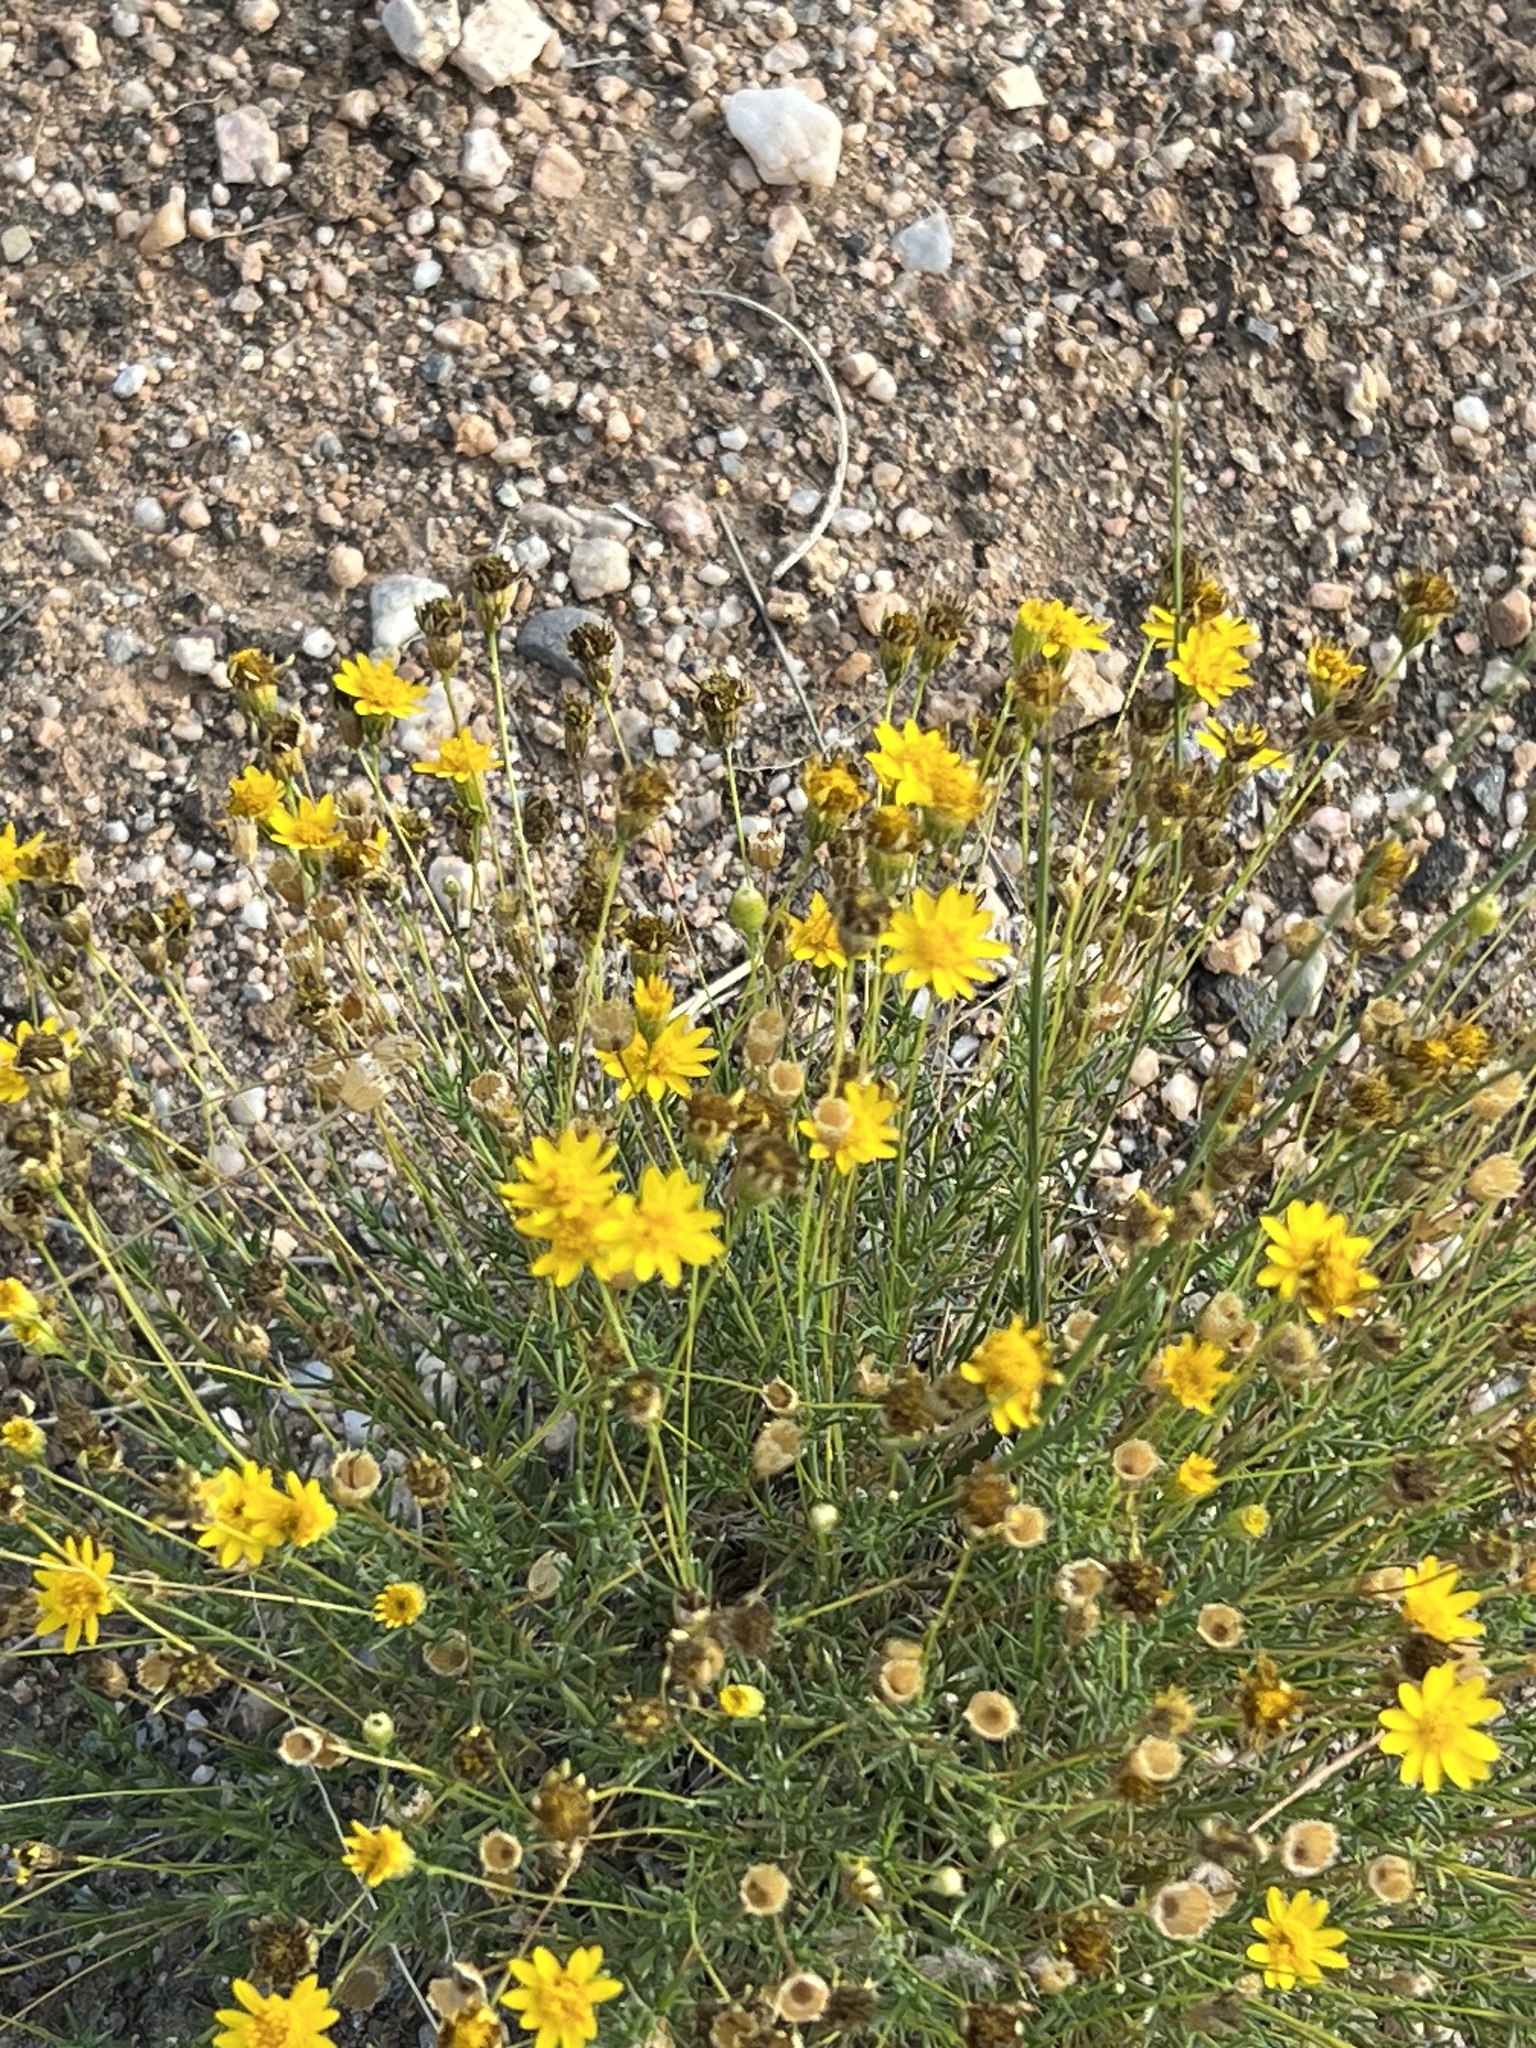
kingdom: Plantae
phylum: Tracheophyta
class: Magnoliopsida
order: Asterales
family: Asteraceae
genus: Thymophylla
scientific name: Thymophylla pentachaeta
